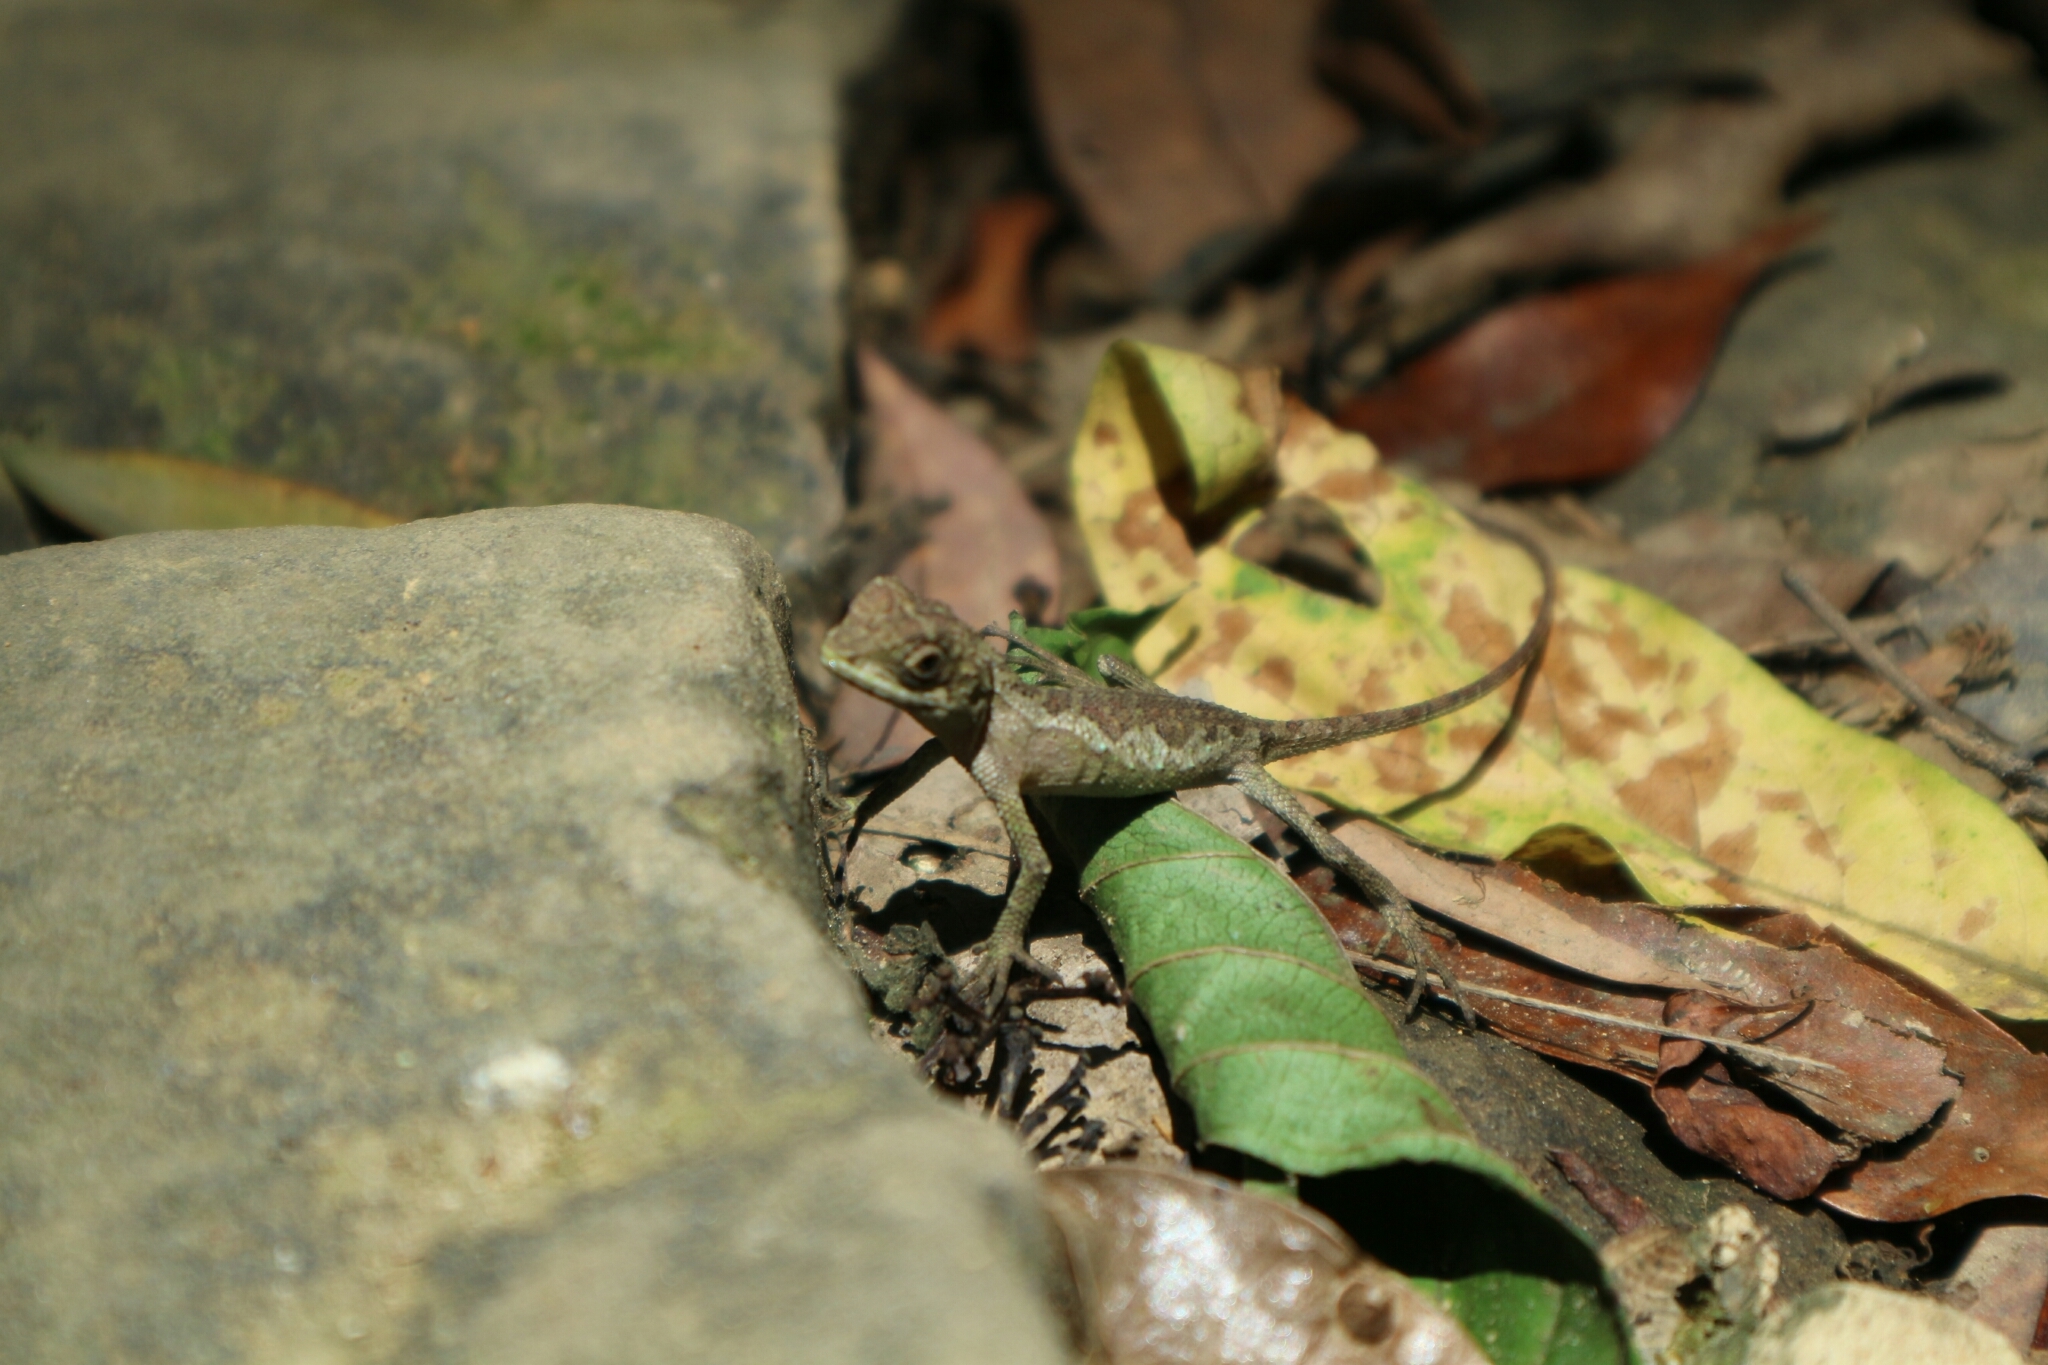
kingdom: Fungi
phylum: Basidiomycota
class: Agaricomycetes
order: Boletales
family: Diplocystidiaceae
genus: Diploderma
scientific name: Diploderma polygonatum
